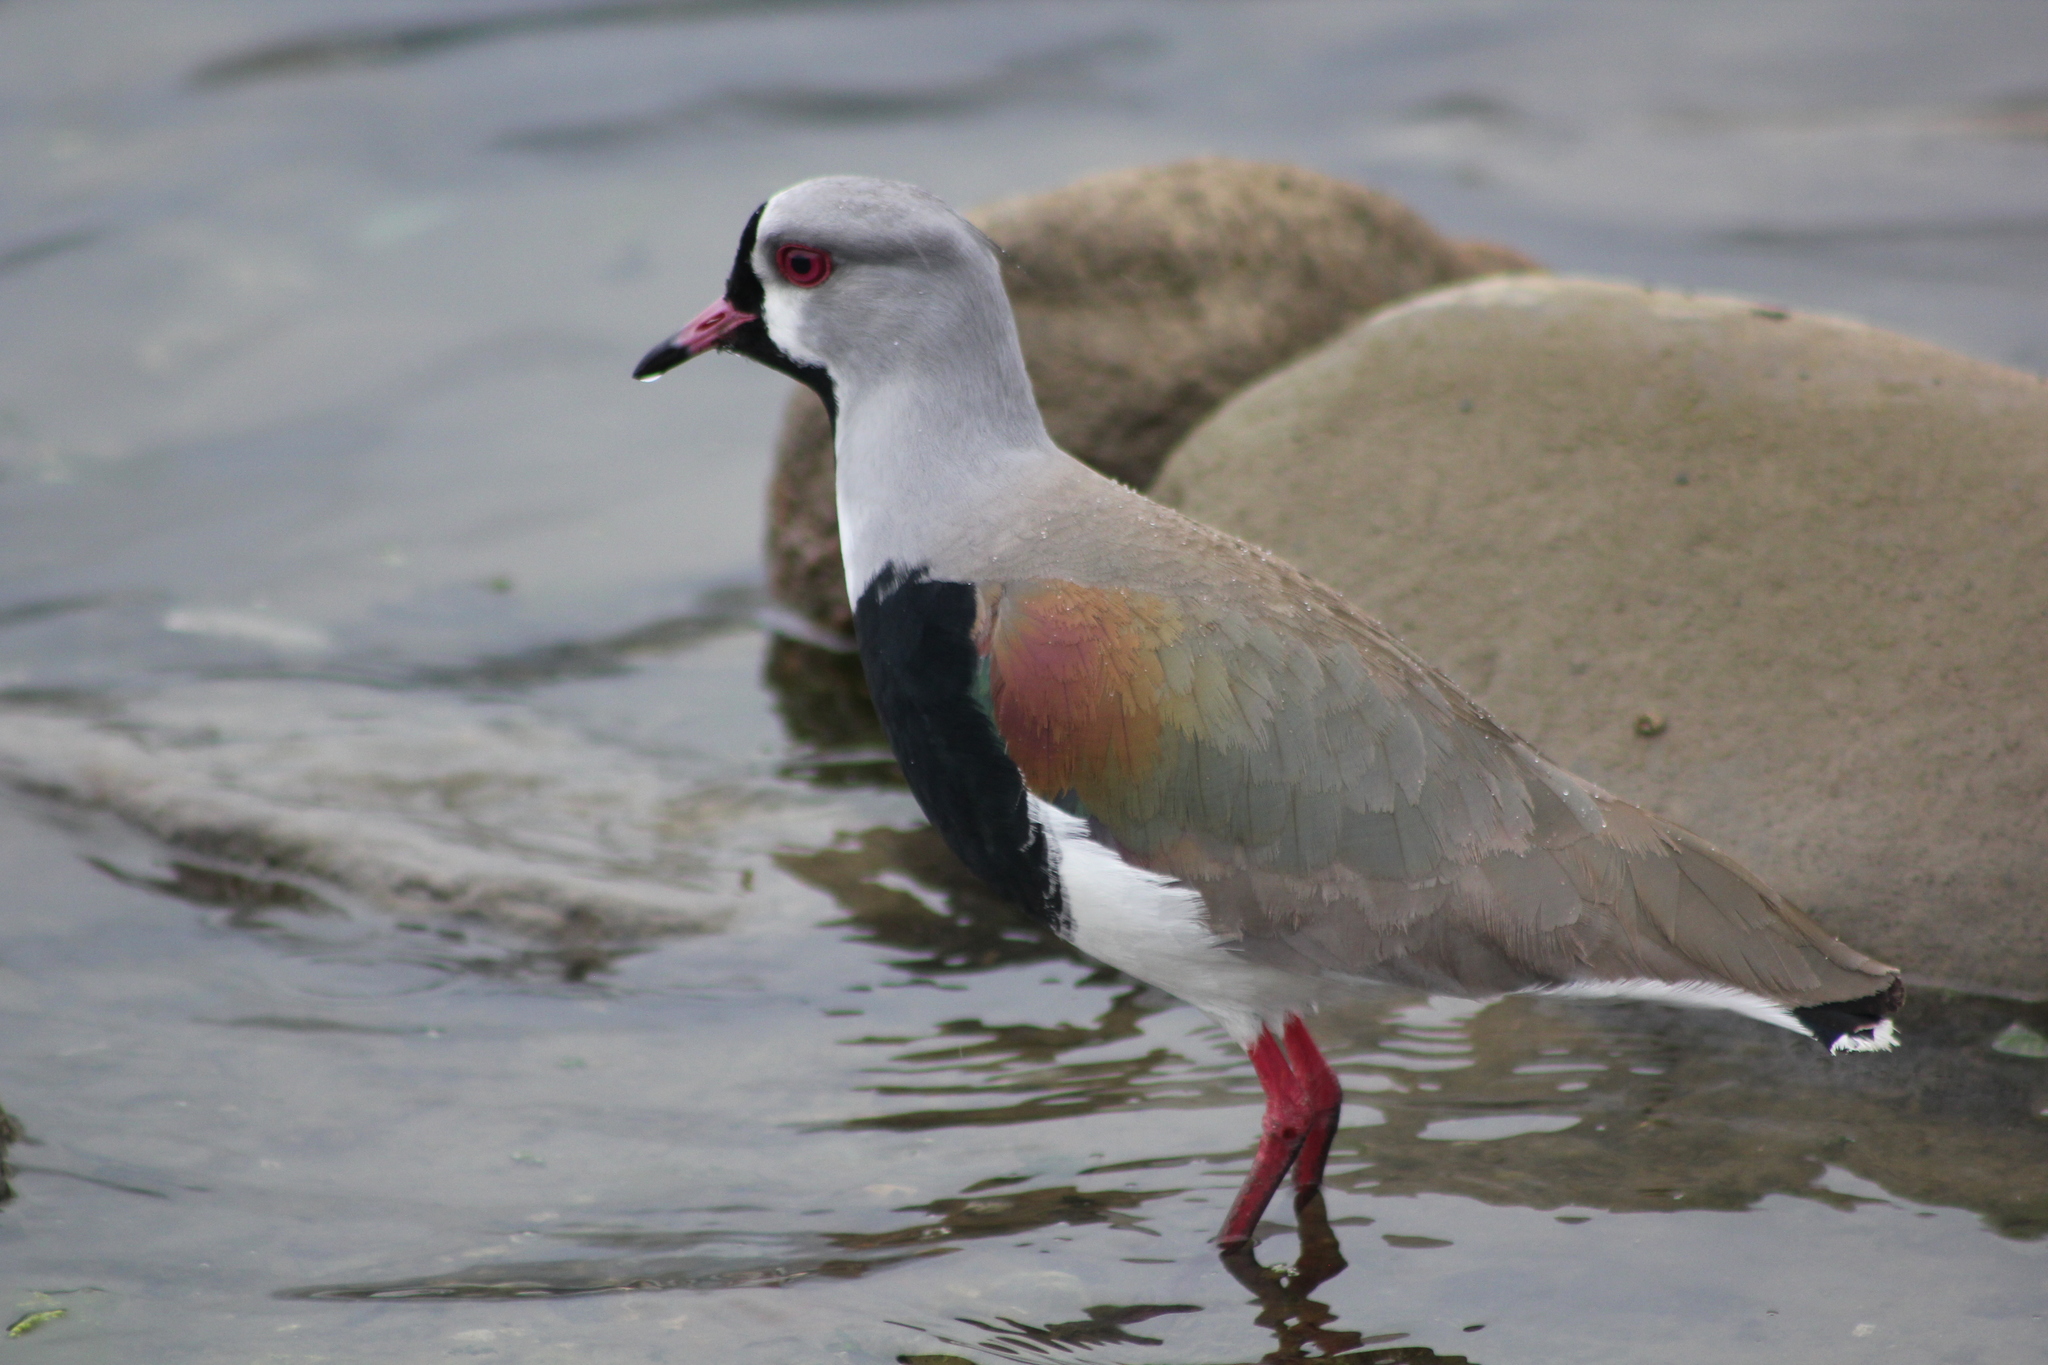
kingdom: Animalia
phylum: Chordata
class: Aves
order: Charadriiformes
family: Charadriidae
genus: Vanellus
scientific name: Vanellus chilensis
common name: Southern lapwing
